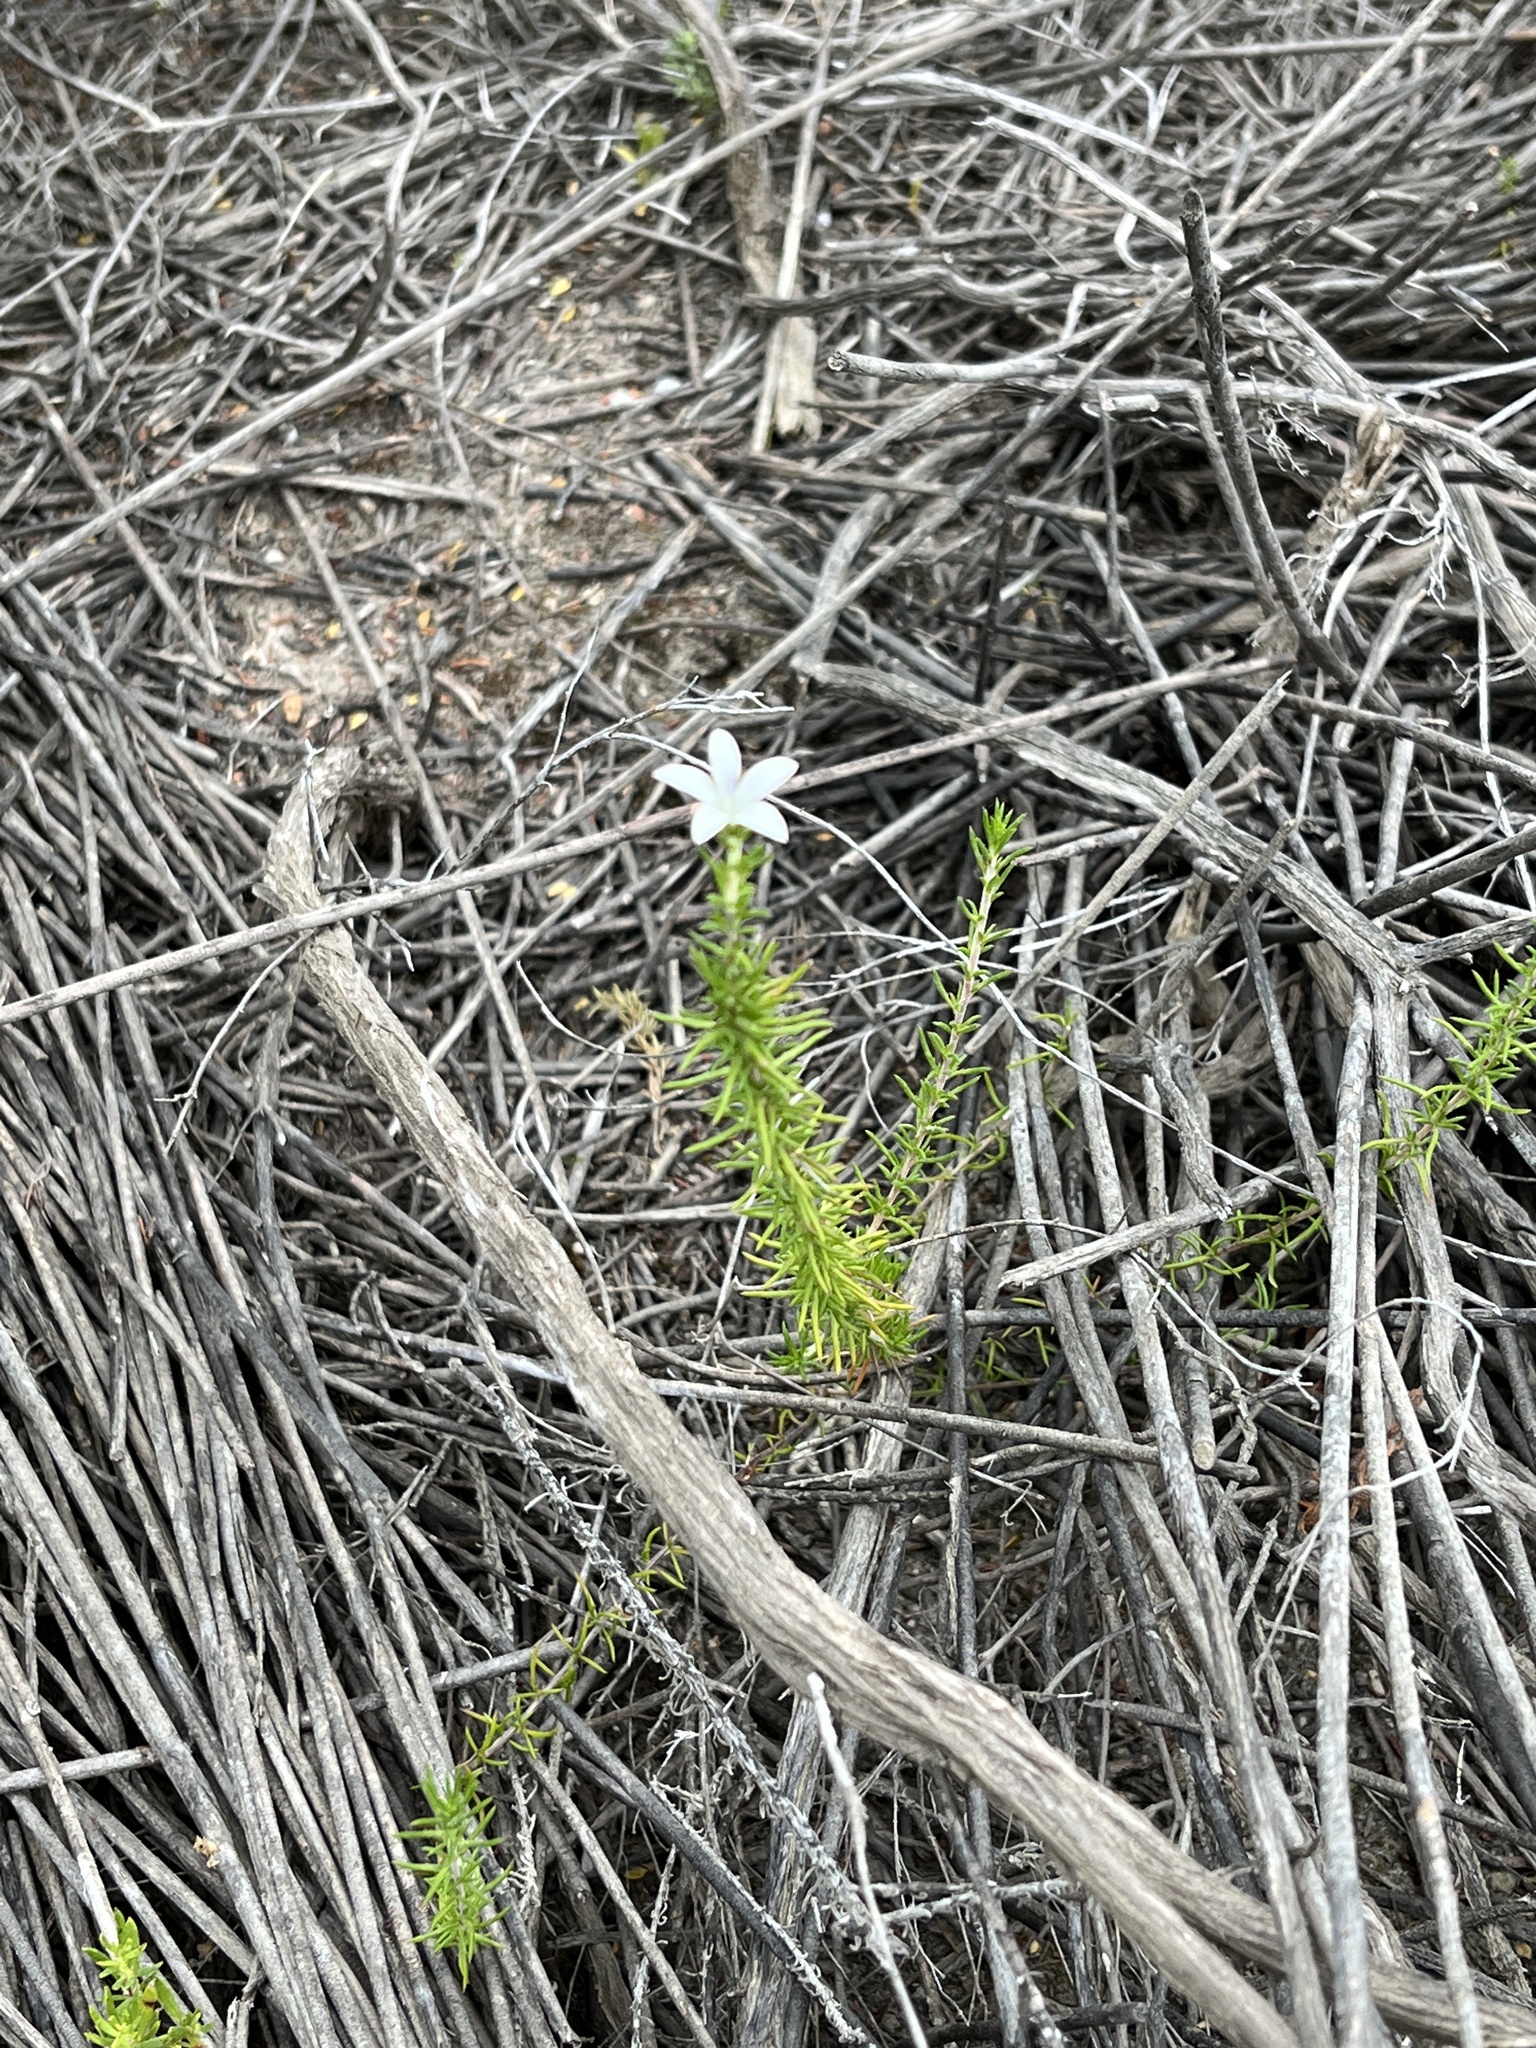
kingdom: Plantae
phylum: Tracheophyta
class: Magnoliopsida
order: Asterales
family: Campanulaceae
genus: Wahlenbergia
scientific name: Wahlenbergia calcarea
